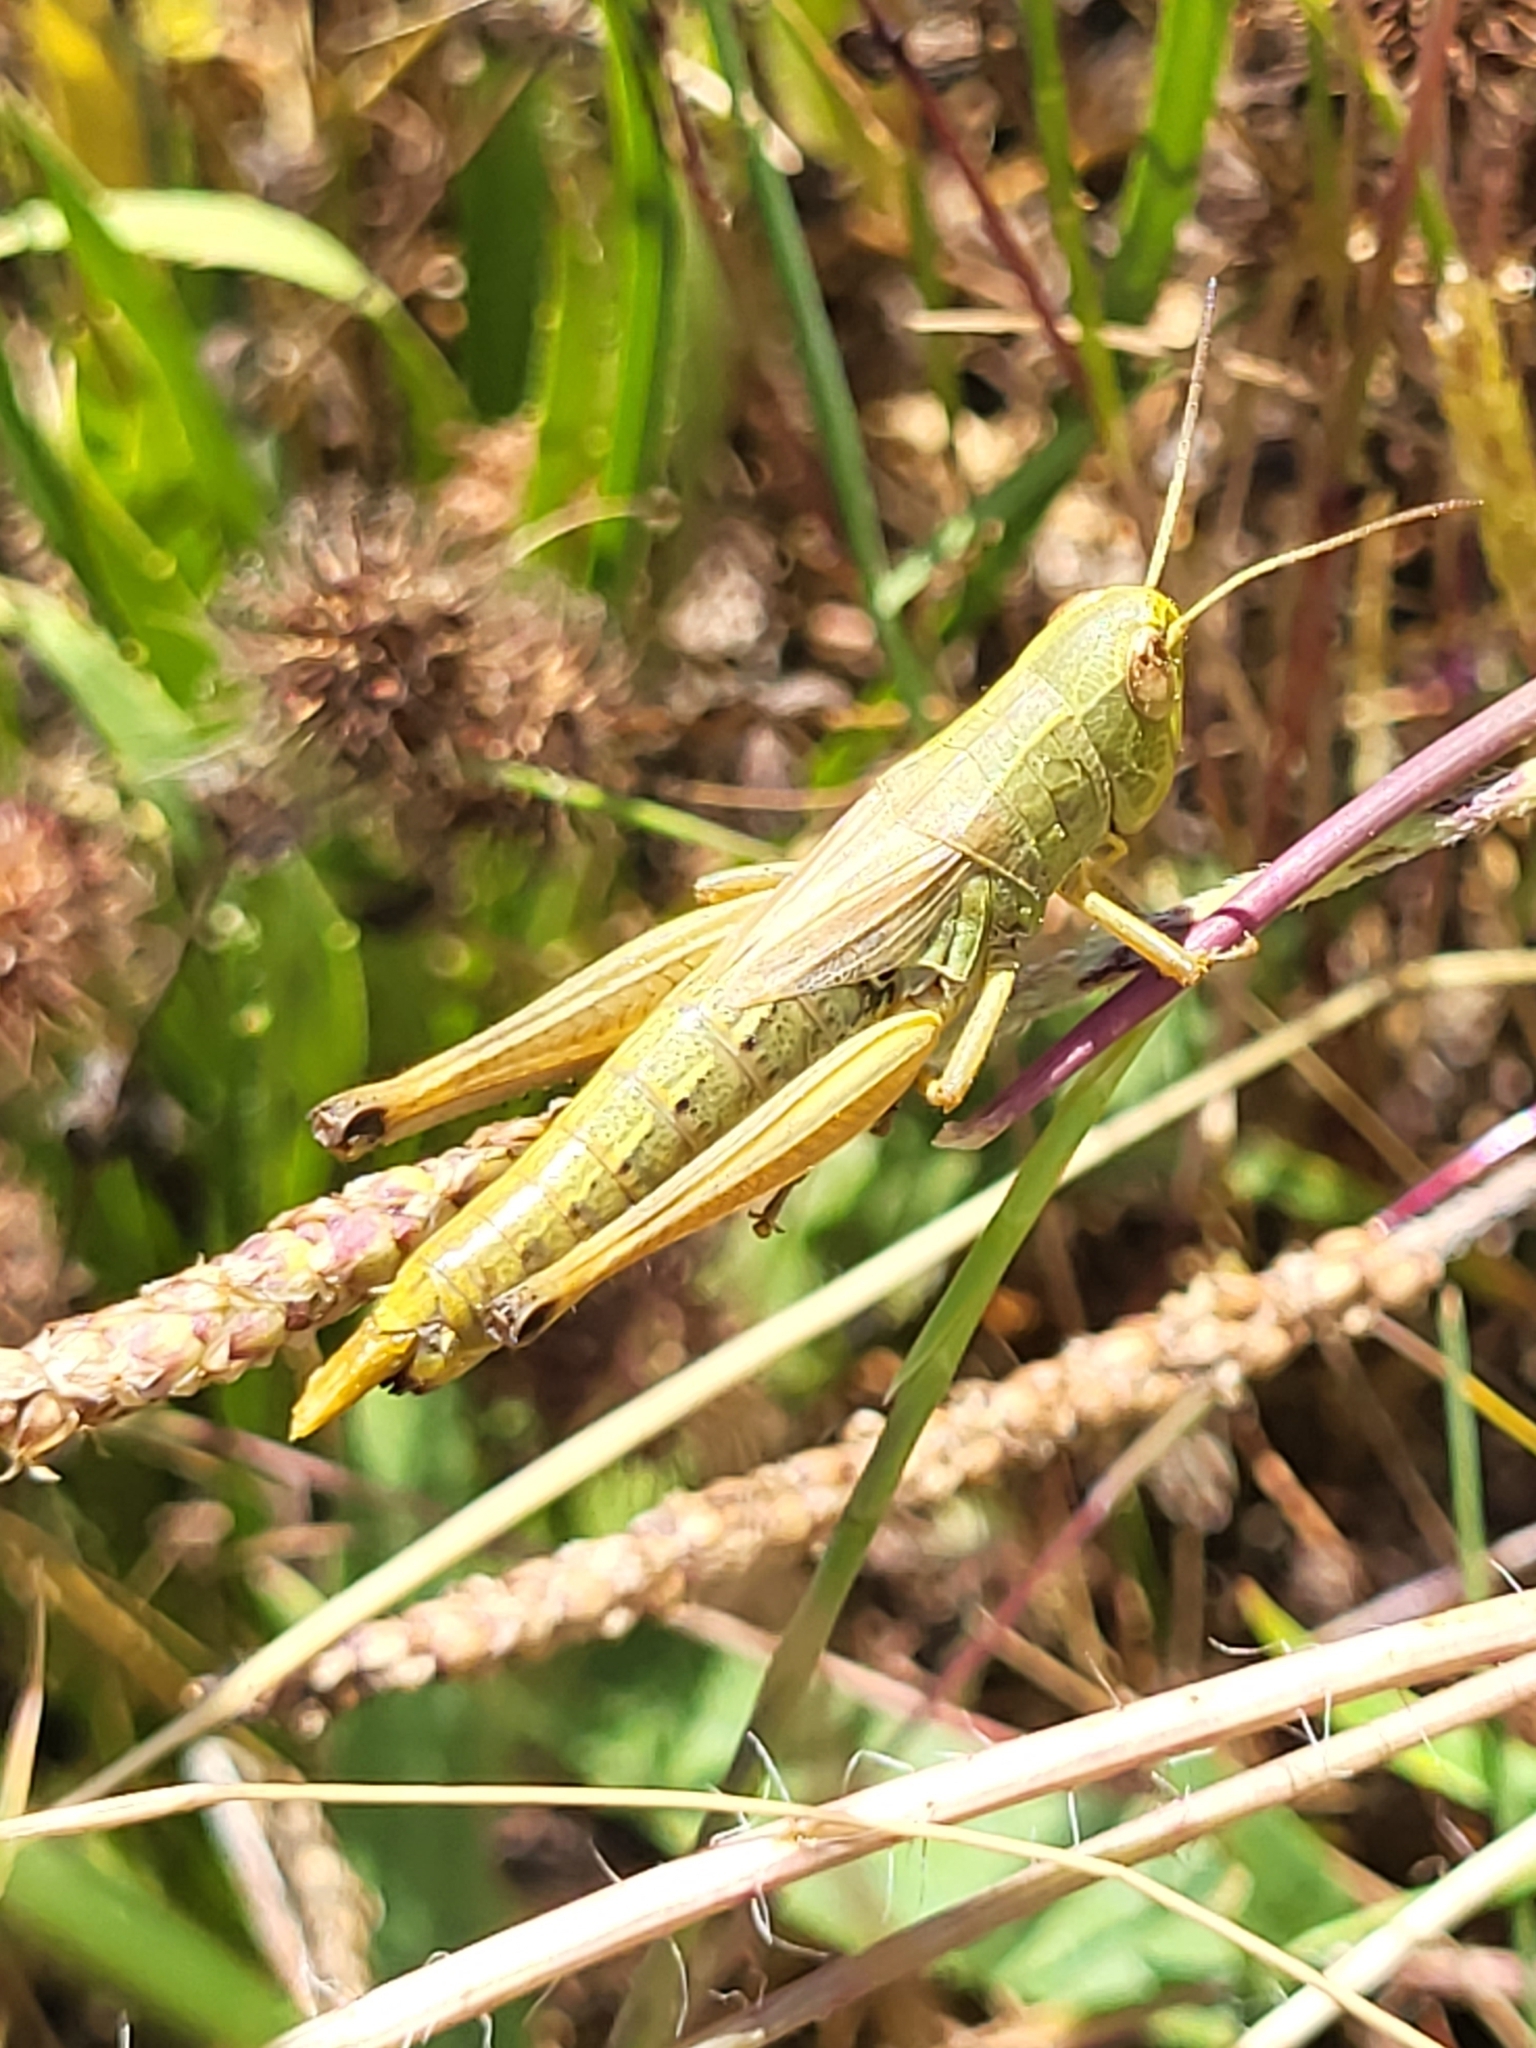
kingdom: Animalia
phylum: Arthropoda
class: Insecta
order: Orthoptera
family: Acrididae
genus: Pseudochorthippus
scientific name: Pseudochorthippus parallelus
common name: Meadow grasshopper
